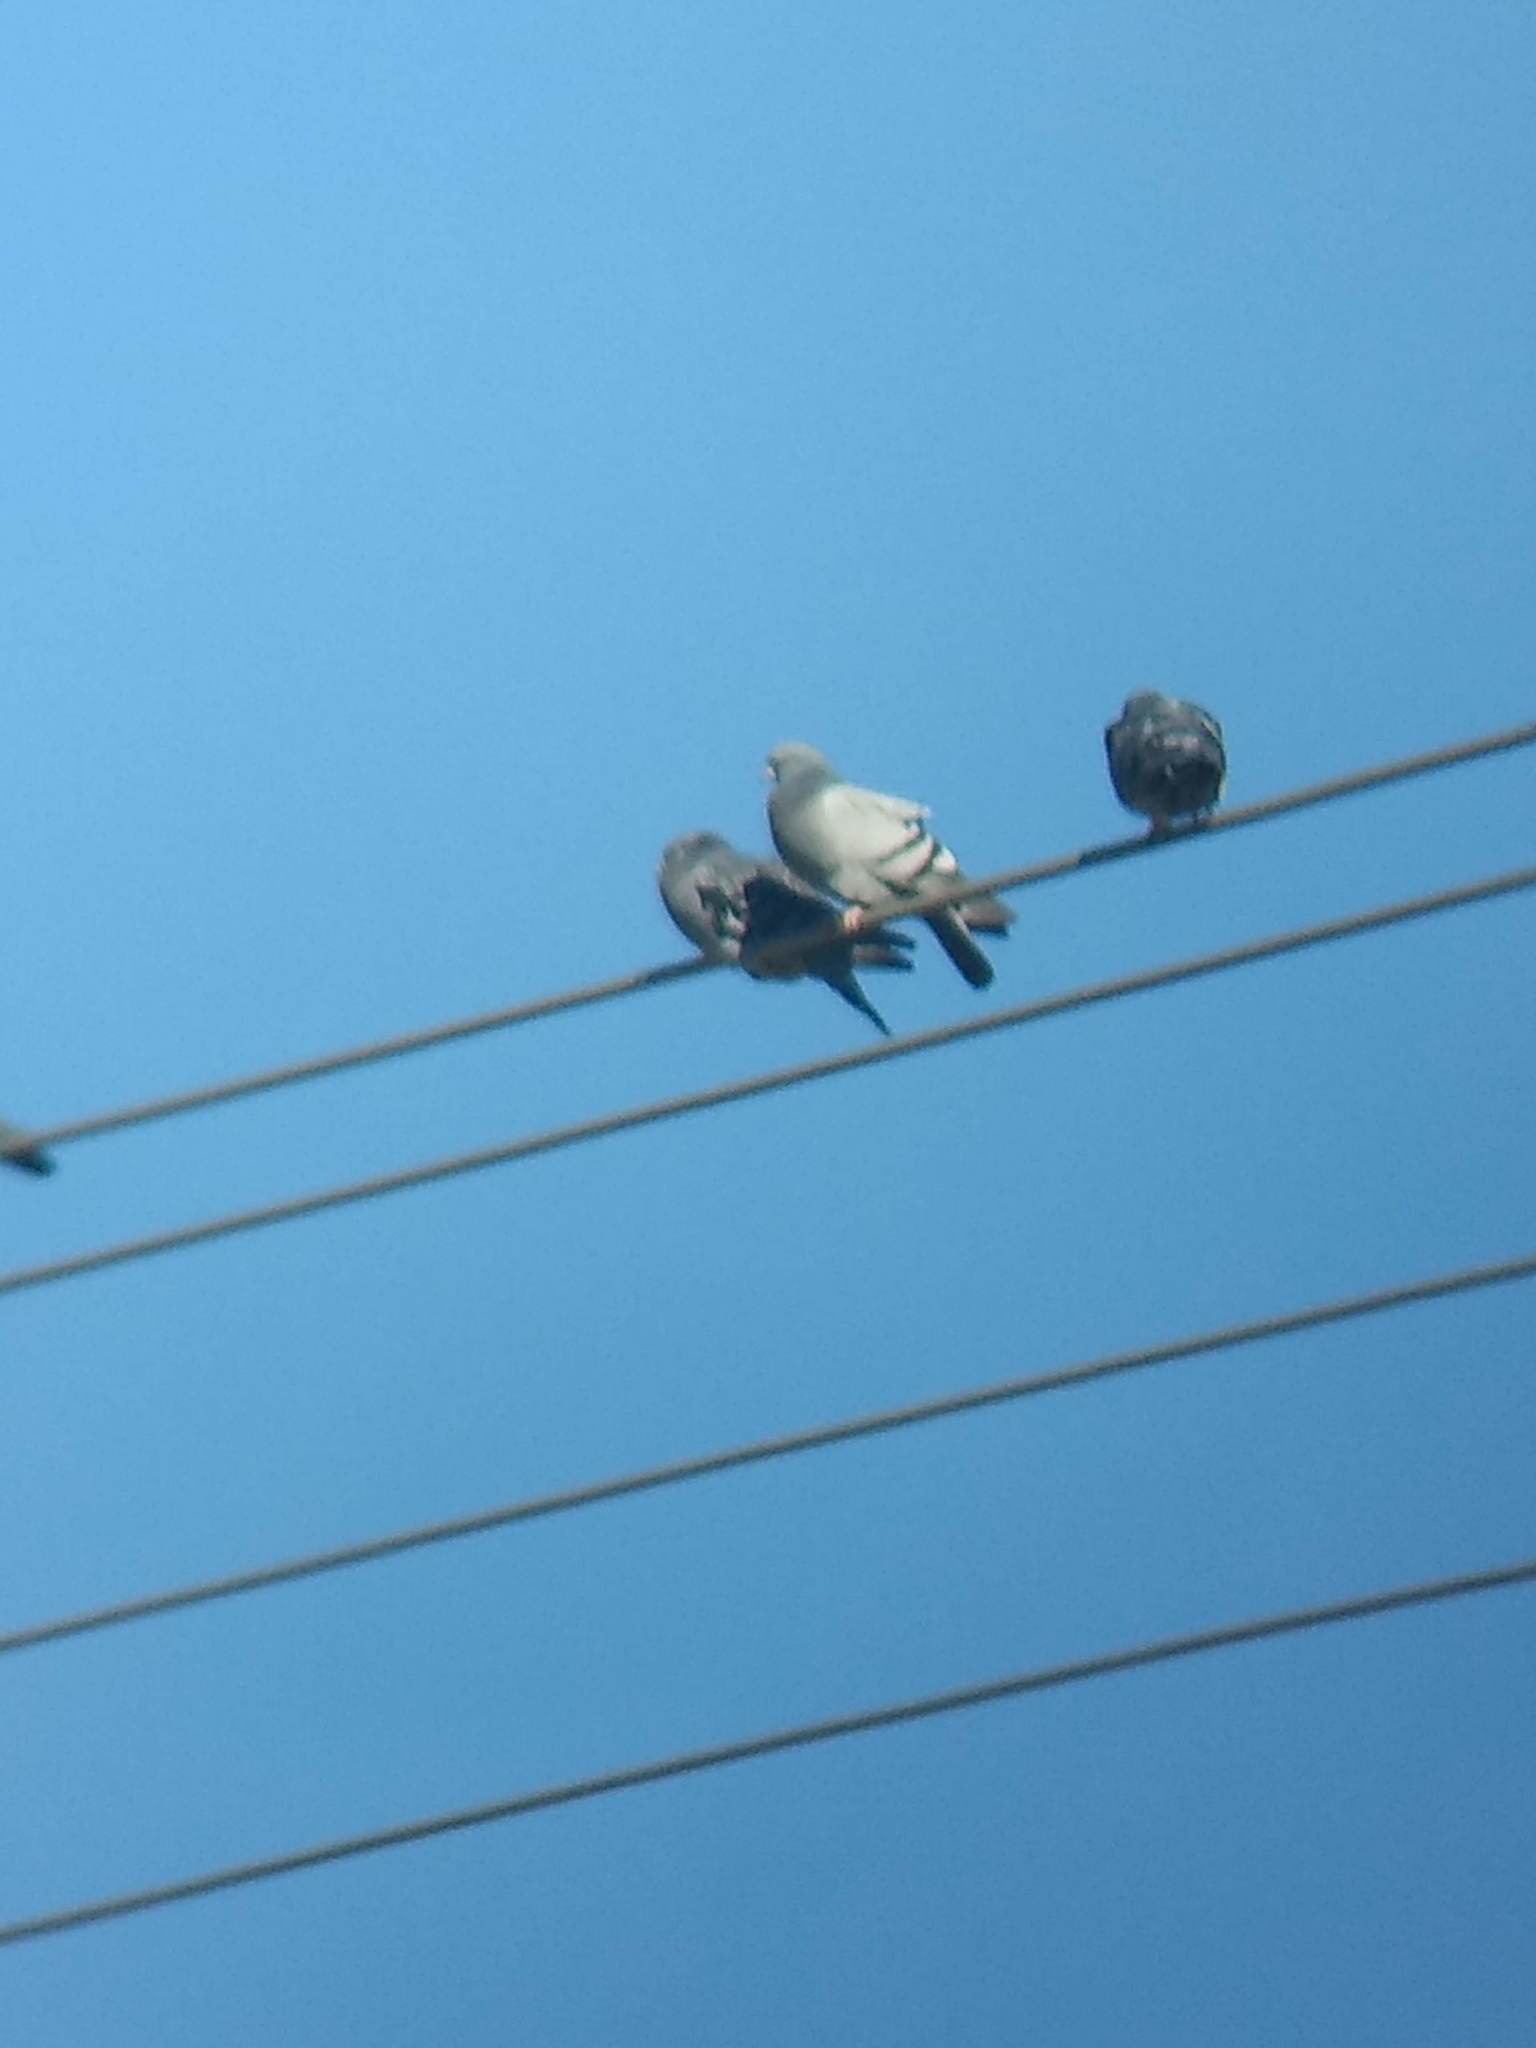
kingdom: Animalia
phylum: Chordata
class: Aves
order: Columbiformes
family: Columbidae
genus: Columba
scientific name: Columba livia
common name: Rock pigeon
